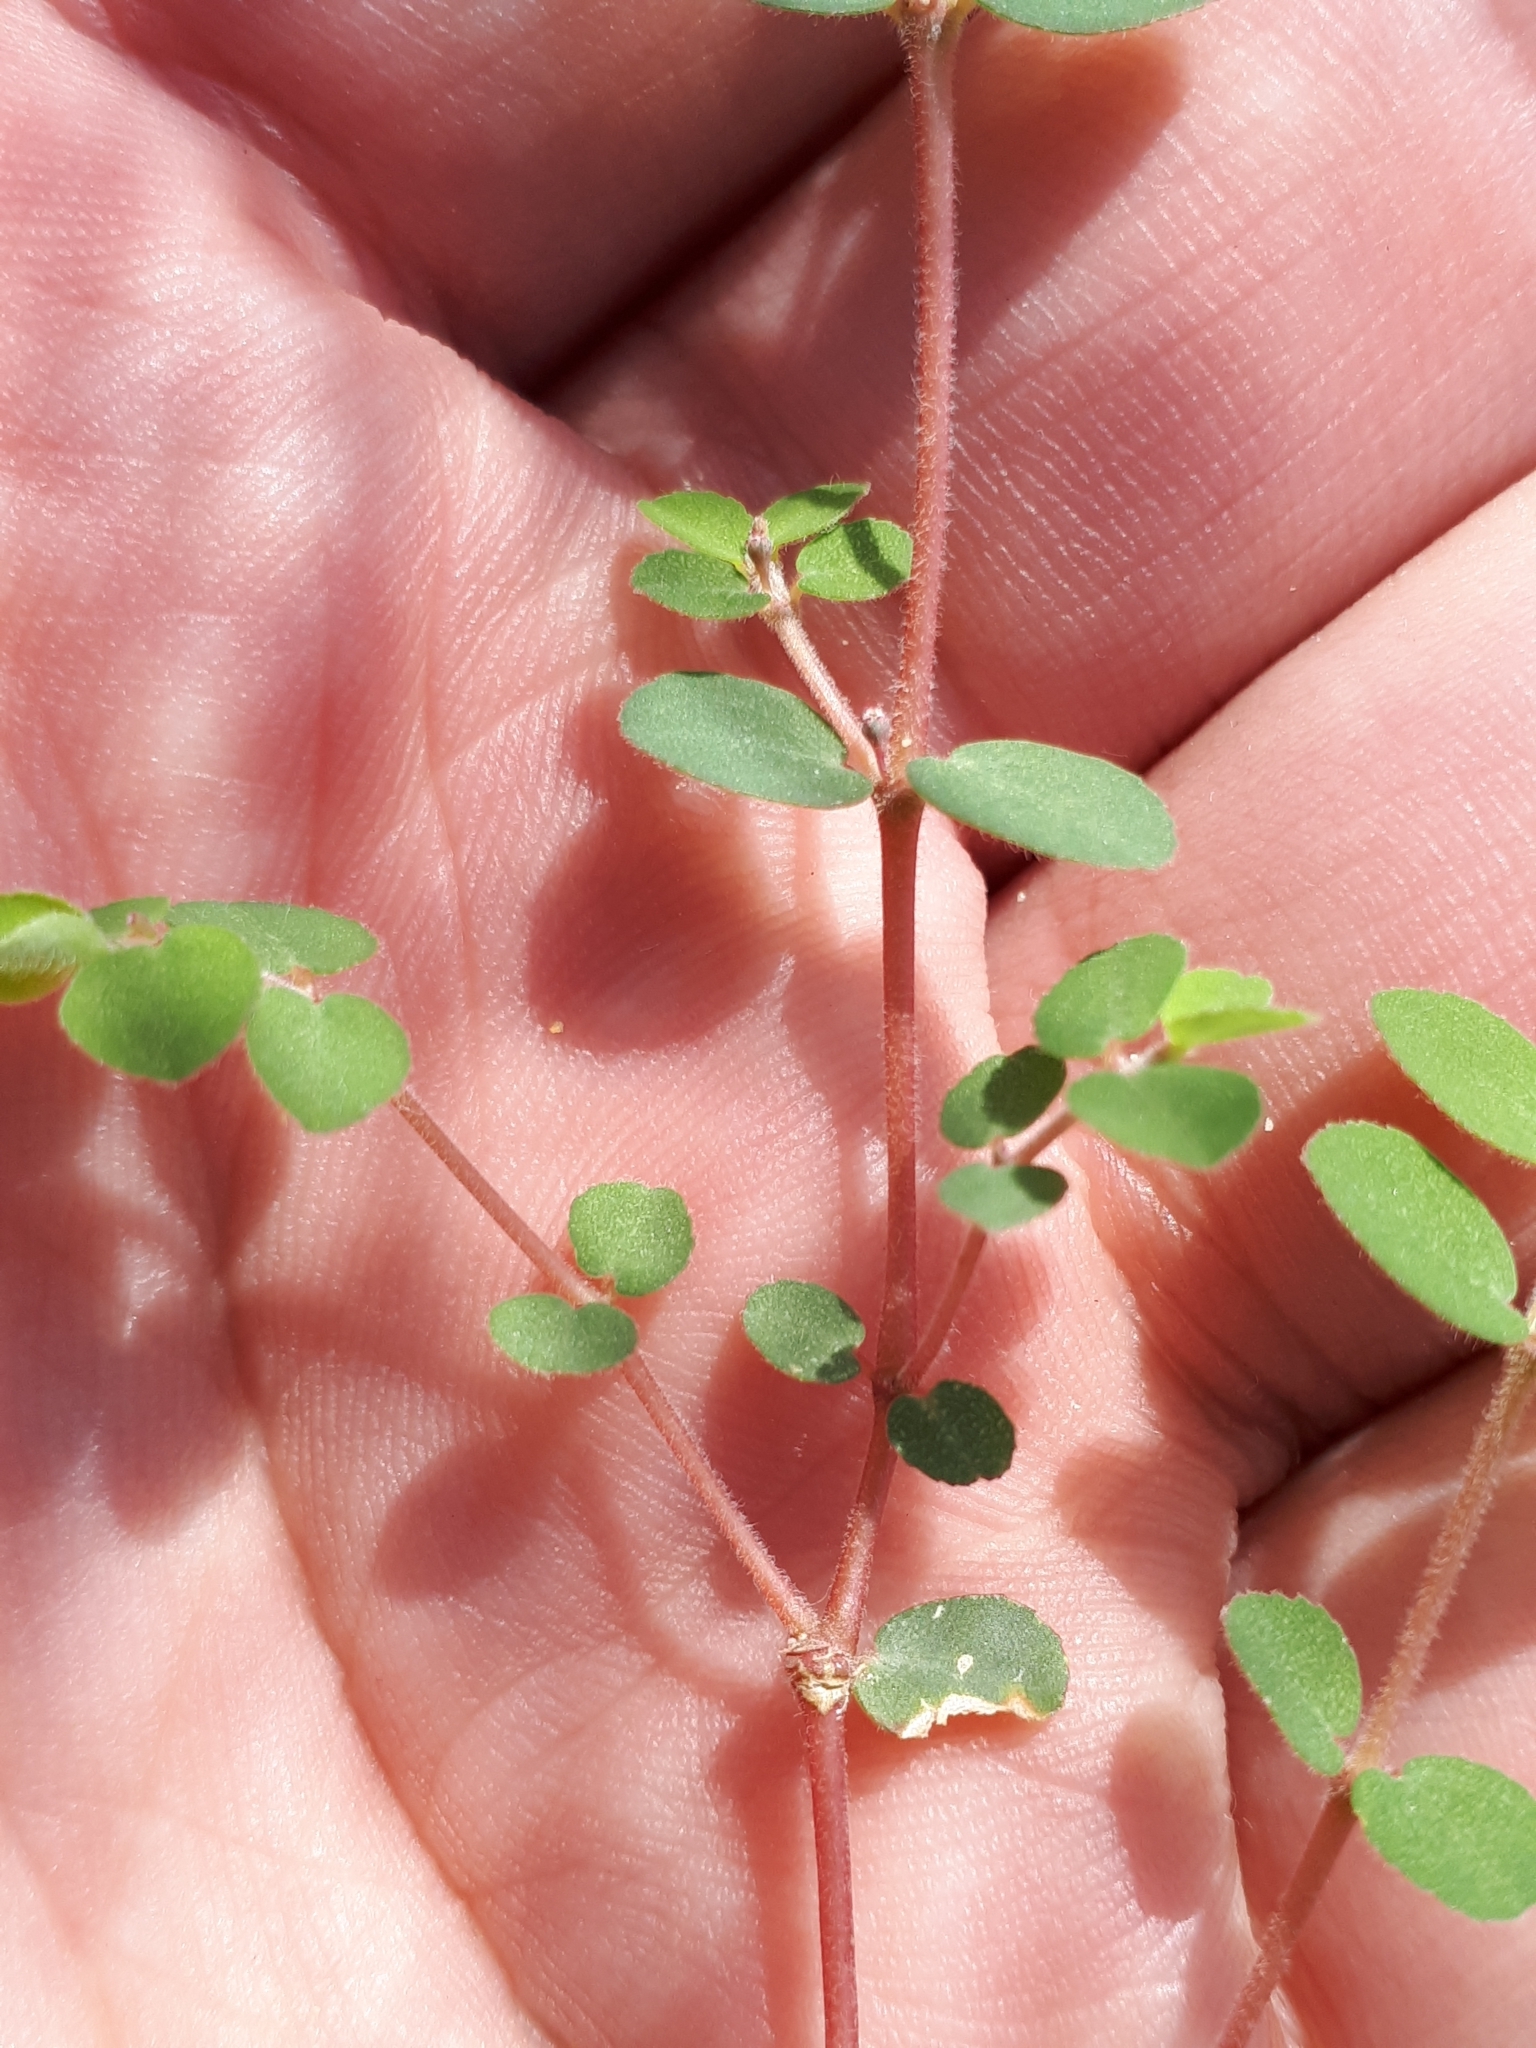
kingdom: Plantae
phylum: Tracheophyta
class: Magnoliopsida
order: Malpighiales
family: Euphorbiaceae
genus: Euphorbia
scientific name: Euphorbia prostrata
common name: Prostrate sandmat
